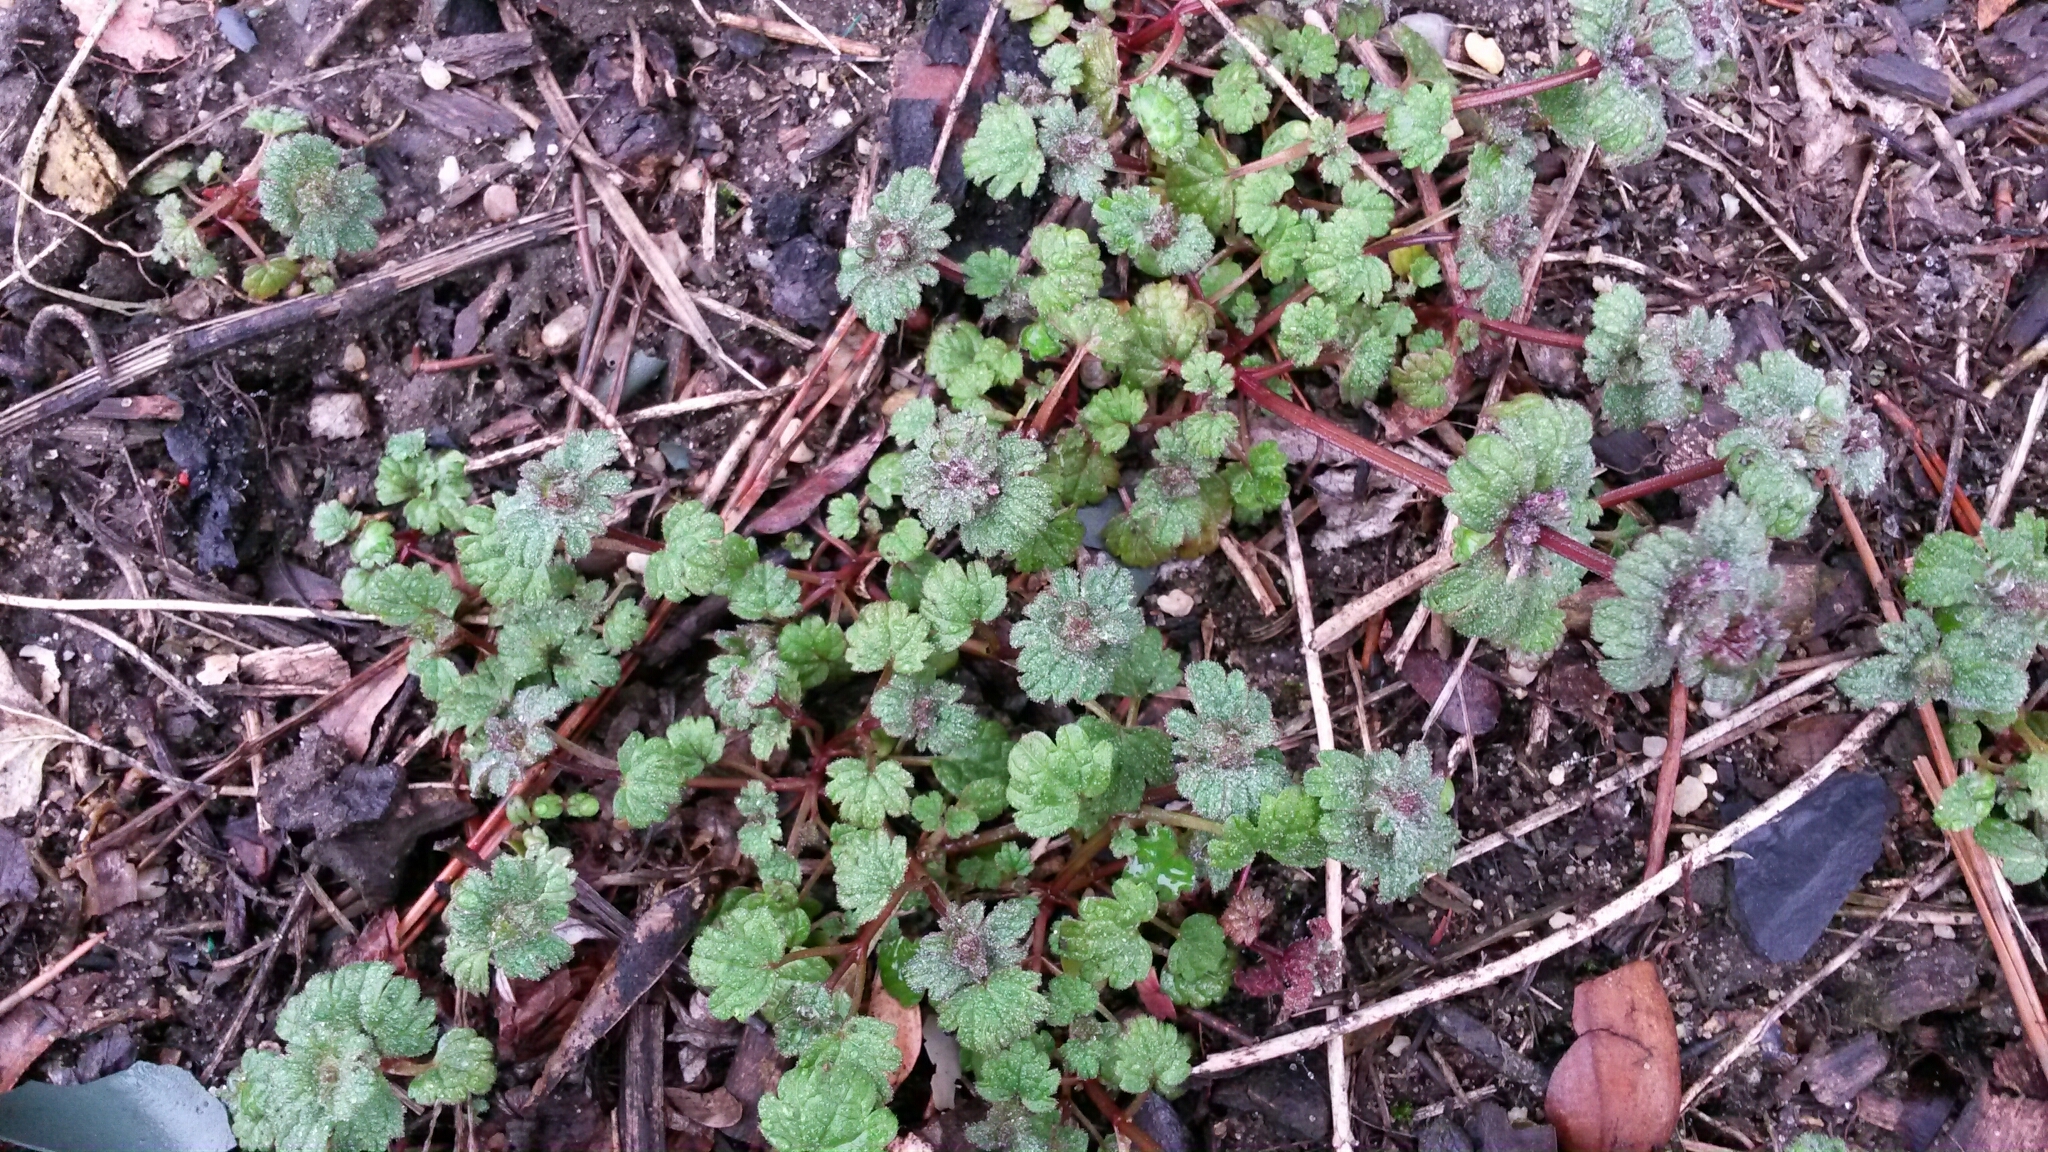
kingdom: Plantae
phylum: Tracheophyta
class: Magnoliopsida
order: Lamiales
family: Lamiaceae
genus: Lamium
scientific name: Lamium amplexicaule
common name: Henbit dead-nettle
